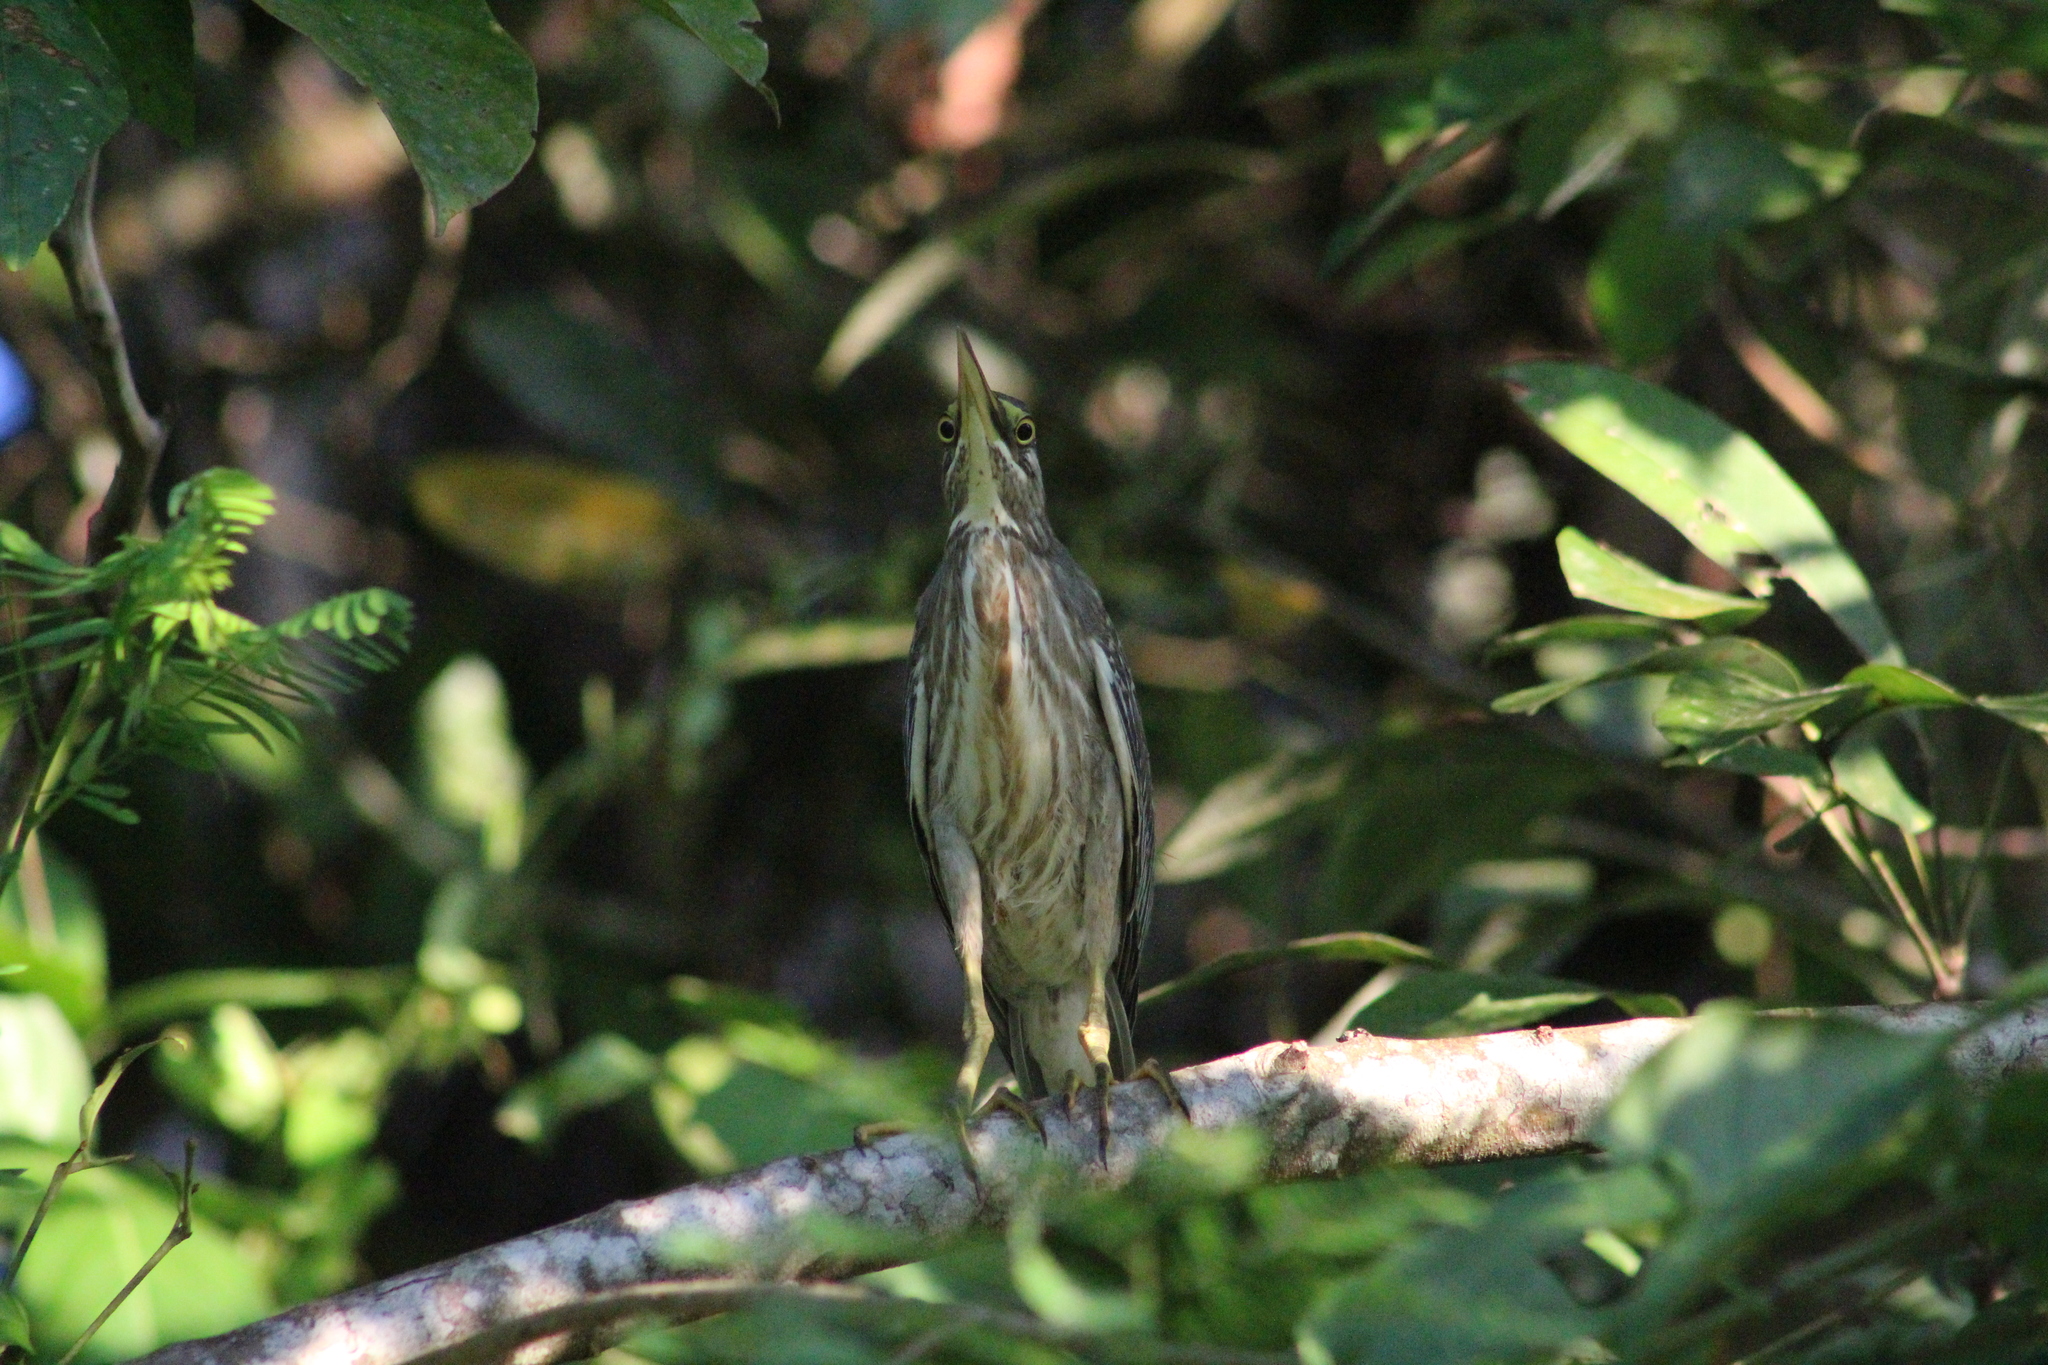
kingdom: Animalia
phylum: Chordata
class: Aves
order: Pelecaniformes
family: Ardeidae
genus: Butorides
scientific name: Butorides striata
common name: Striated heron
